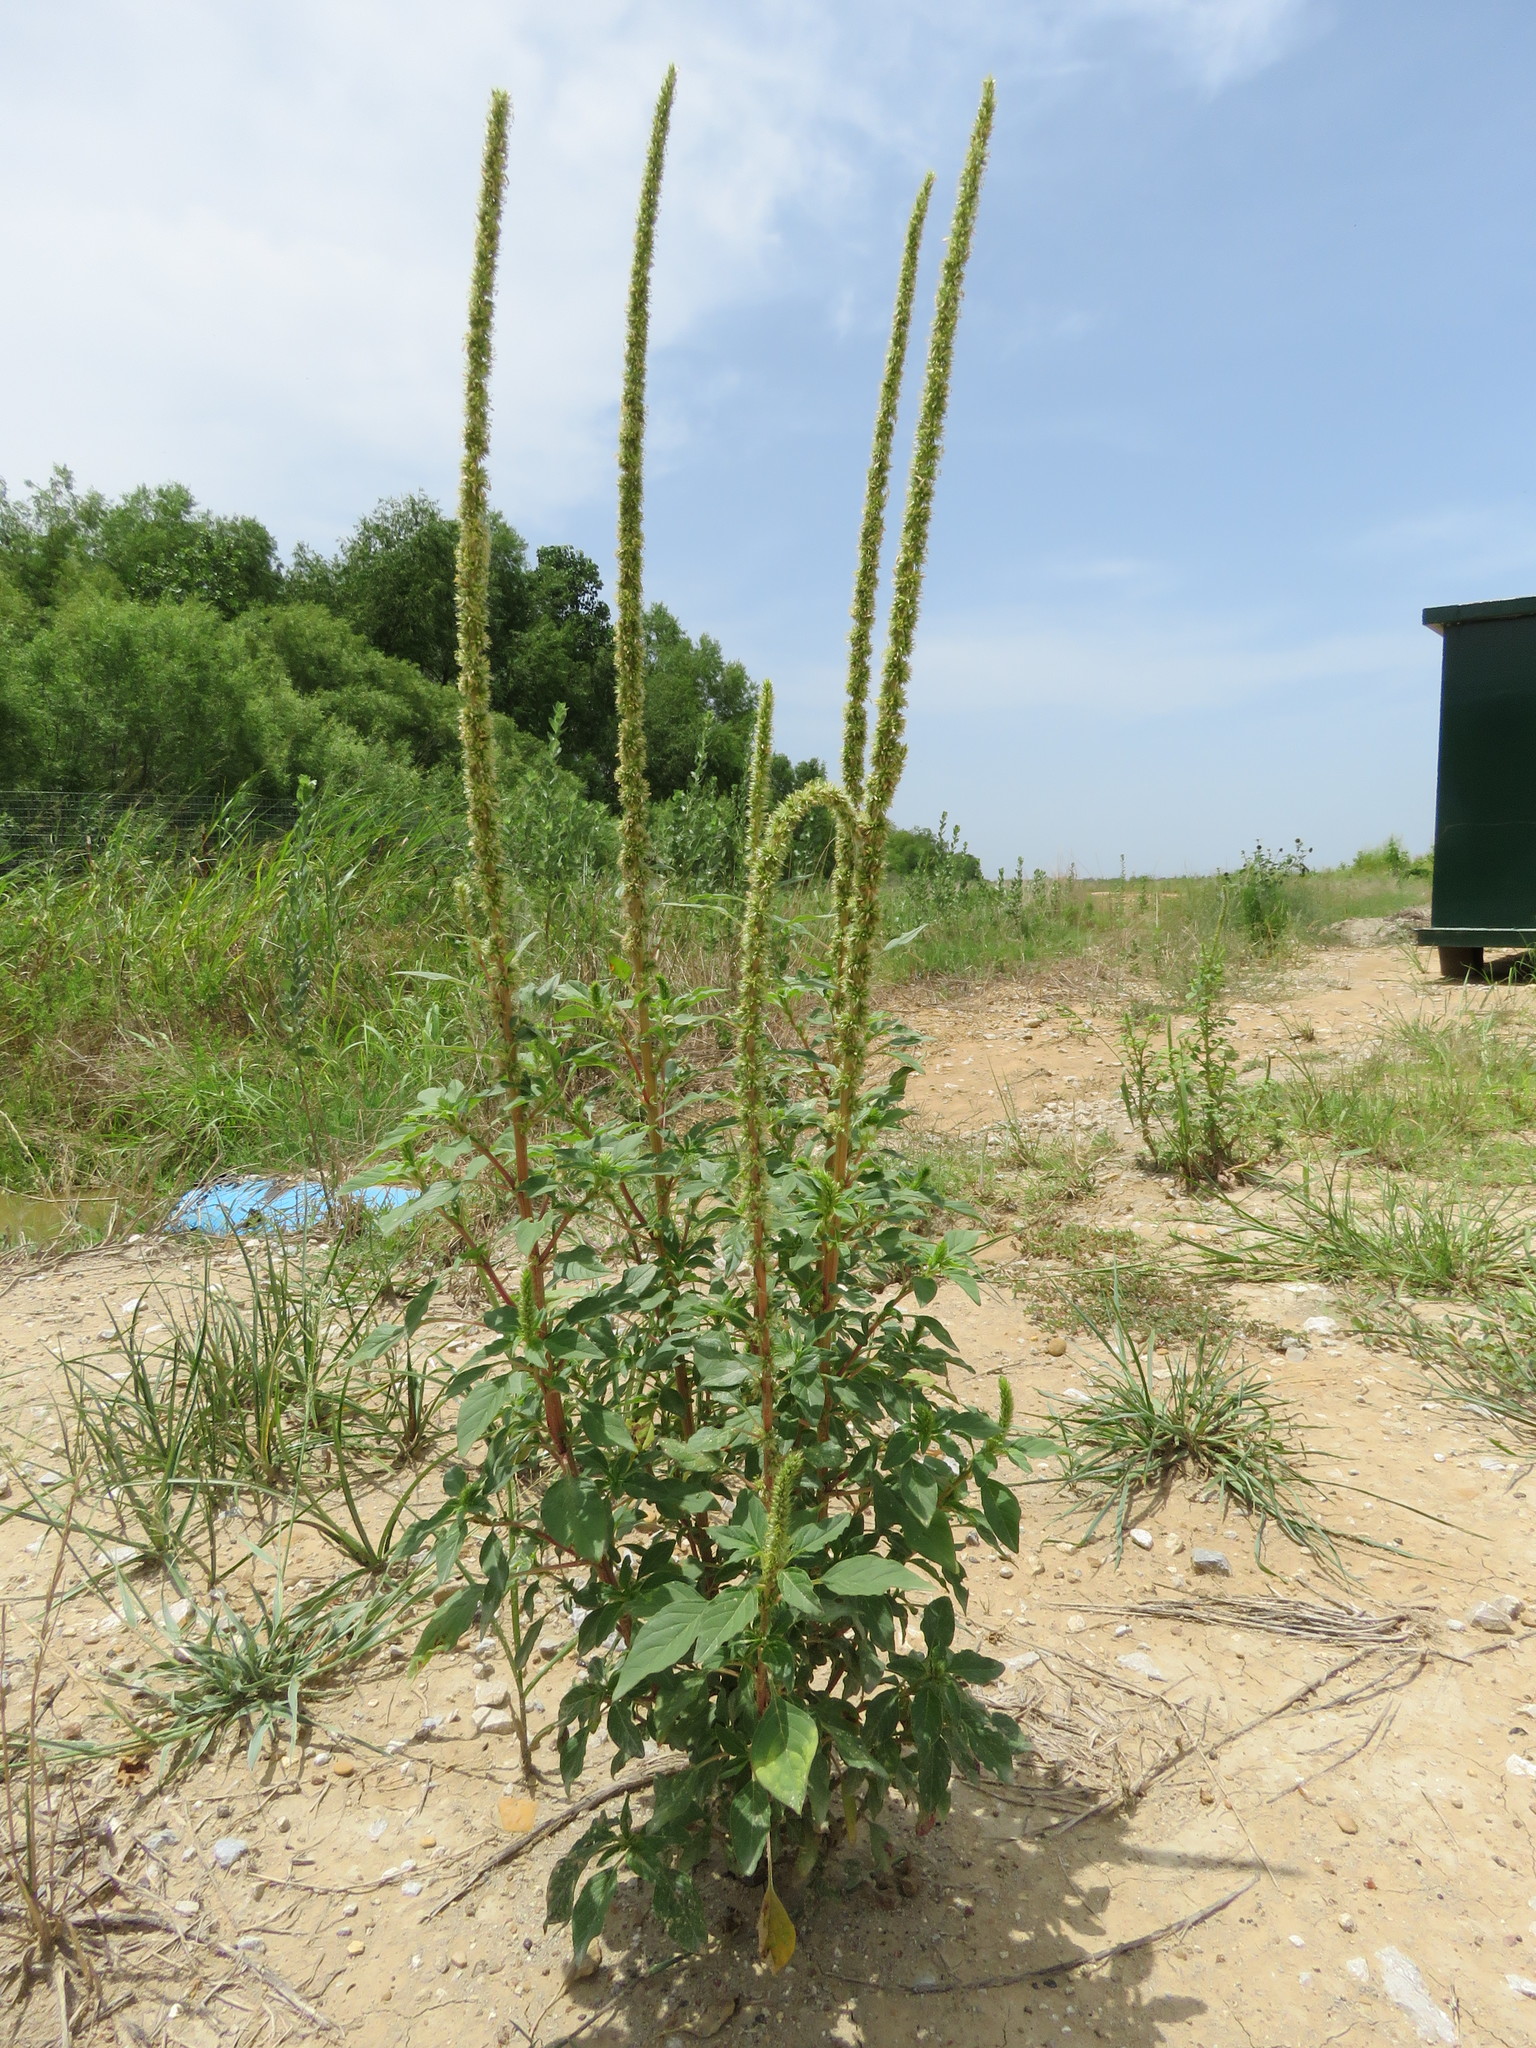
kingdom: Plantae
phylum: Tracheophyta
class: Magnoliopsida
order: Caryophyllales
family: Amaranthaceae
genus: Amaranthus
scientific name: Amaranthus palmeri
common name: Dioecious amaranth
